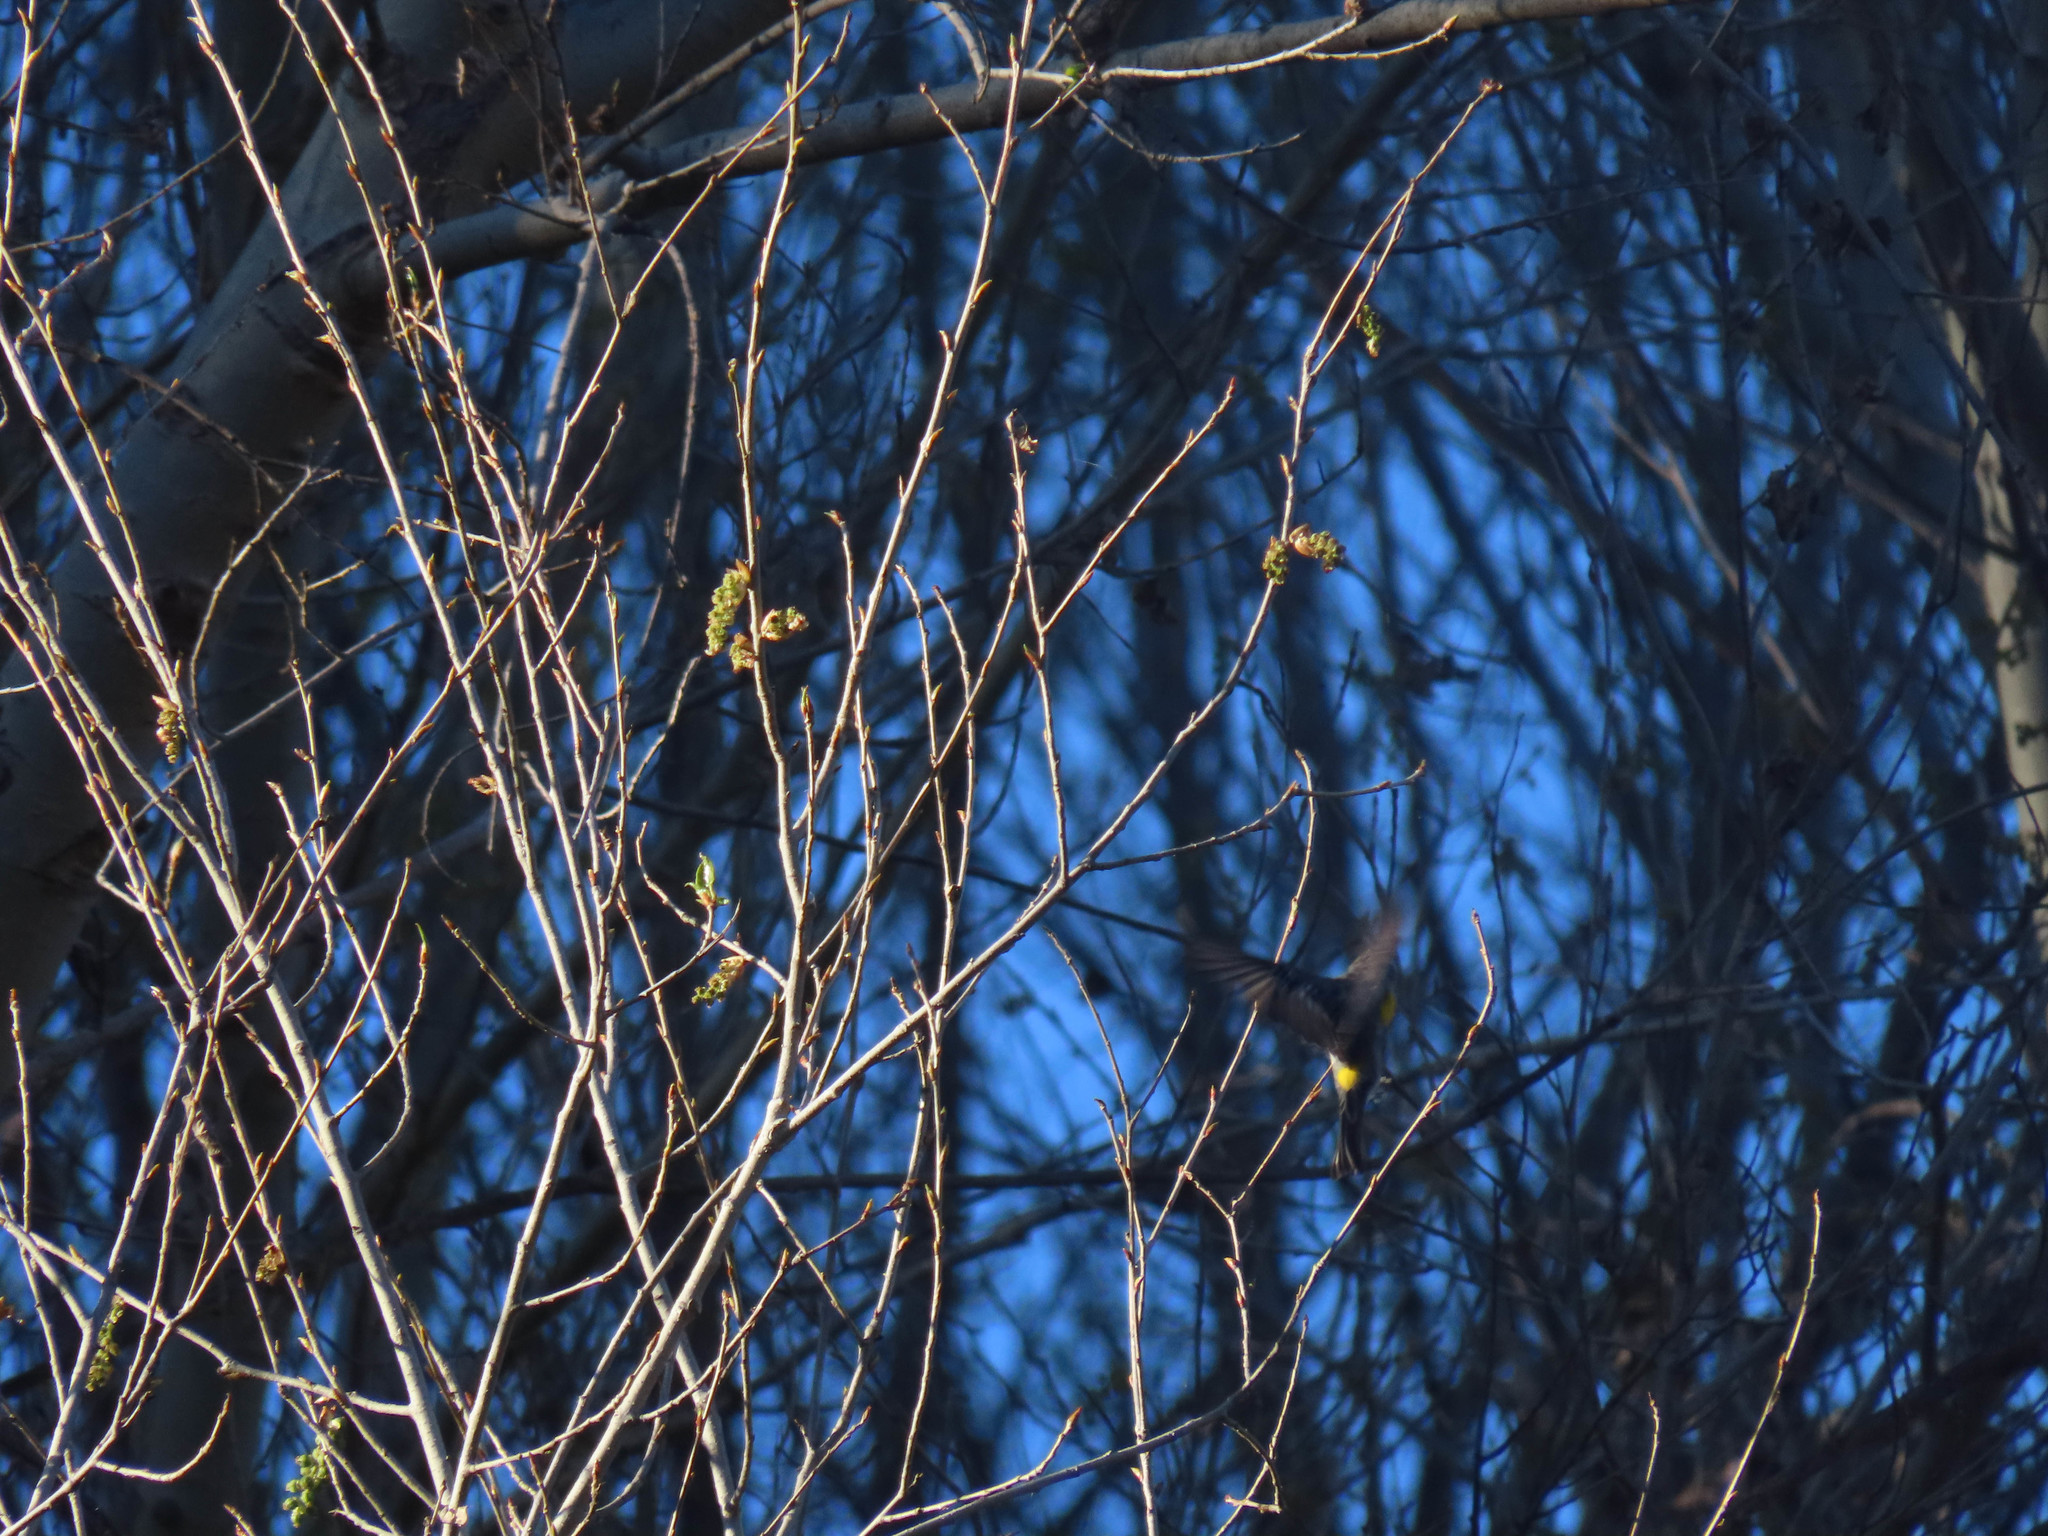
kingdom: Animalia
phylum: Chordata
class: Aves
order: Passeriformes
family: Parulidae
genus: Setophaga
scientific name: Setophaga auduboni
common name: Audubon's warbler
